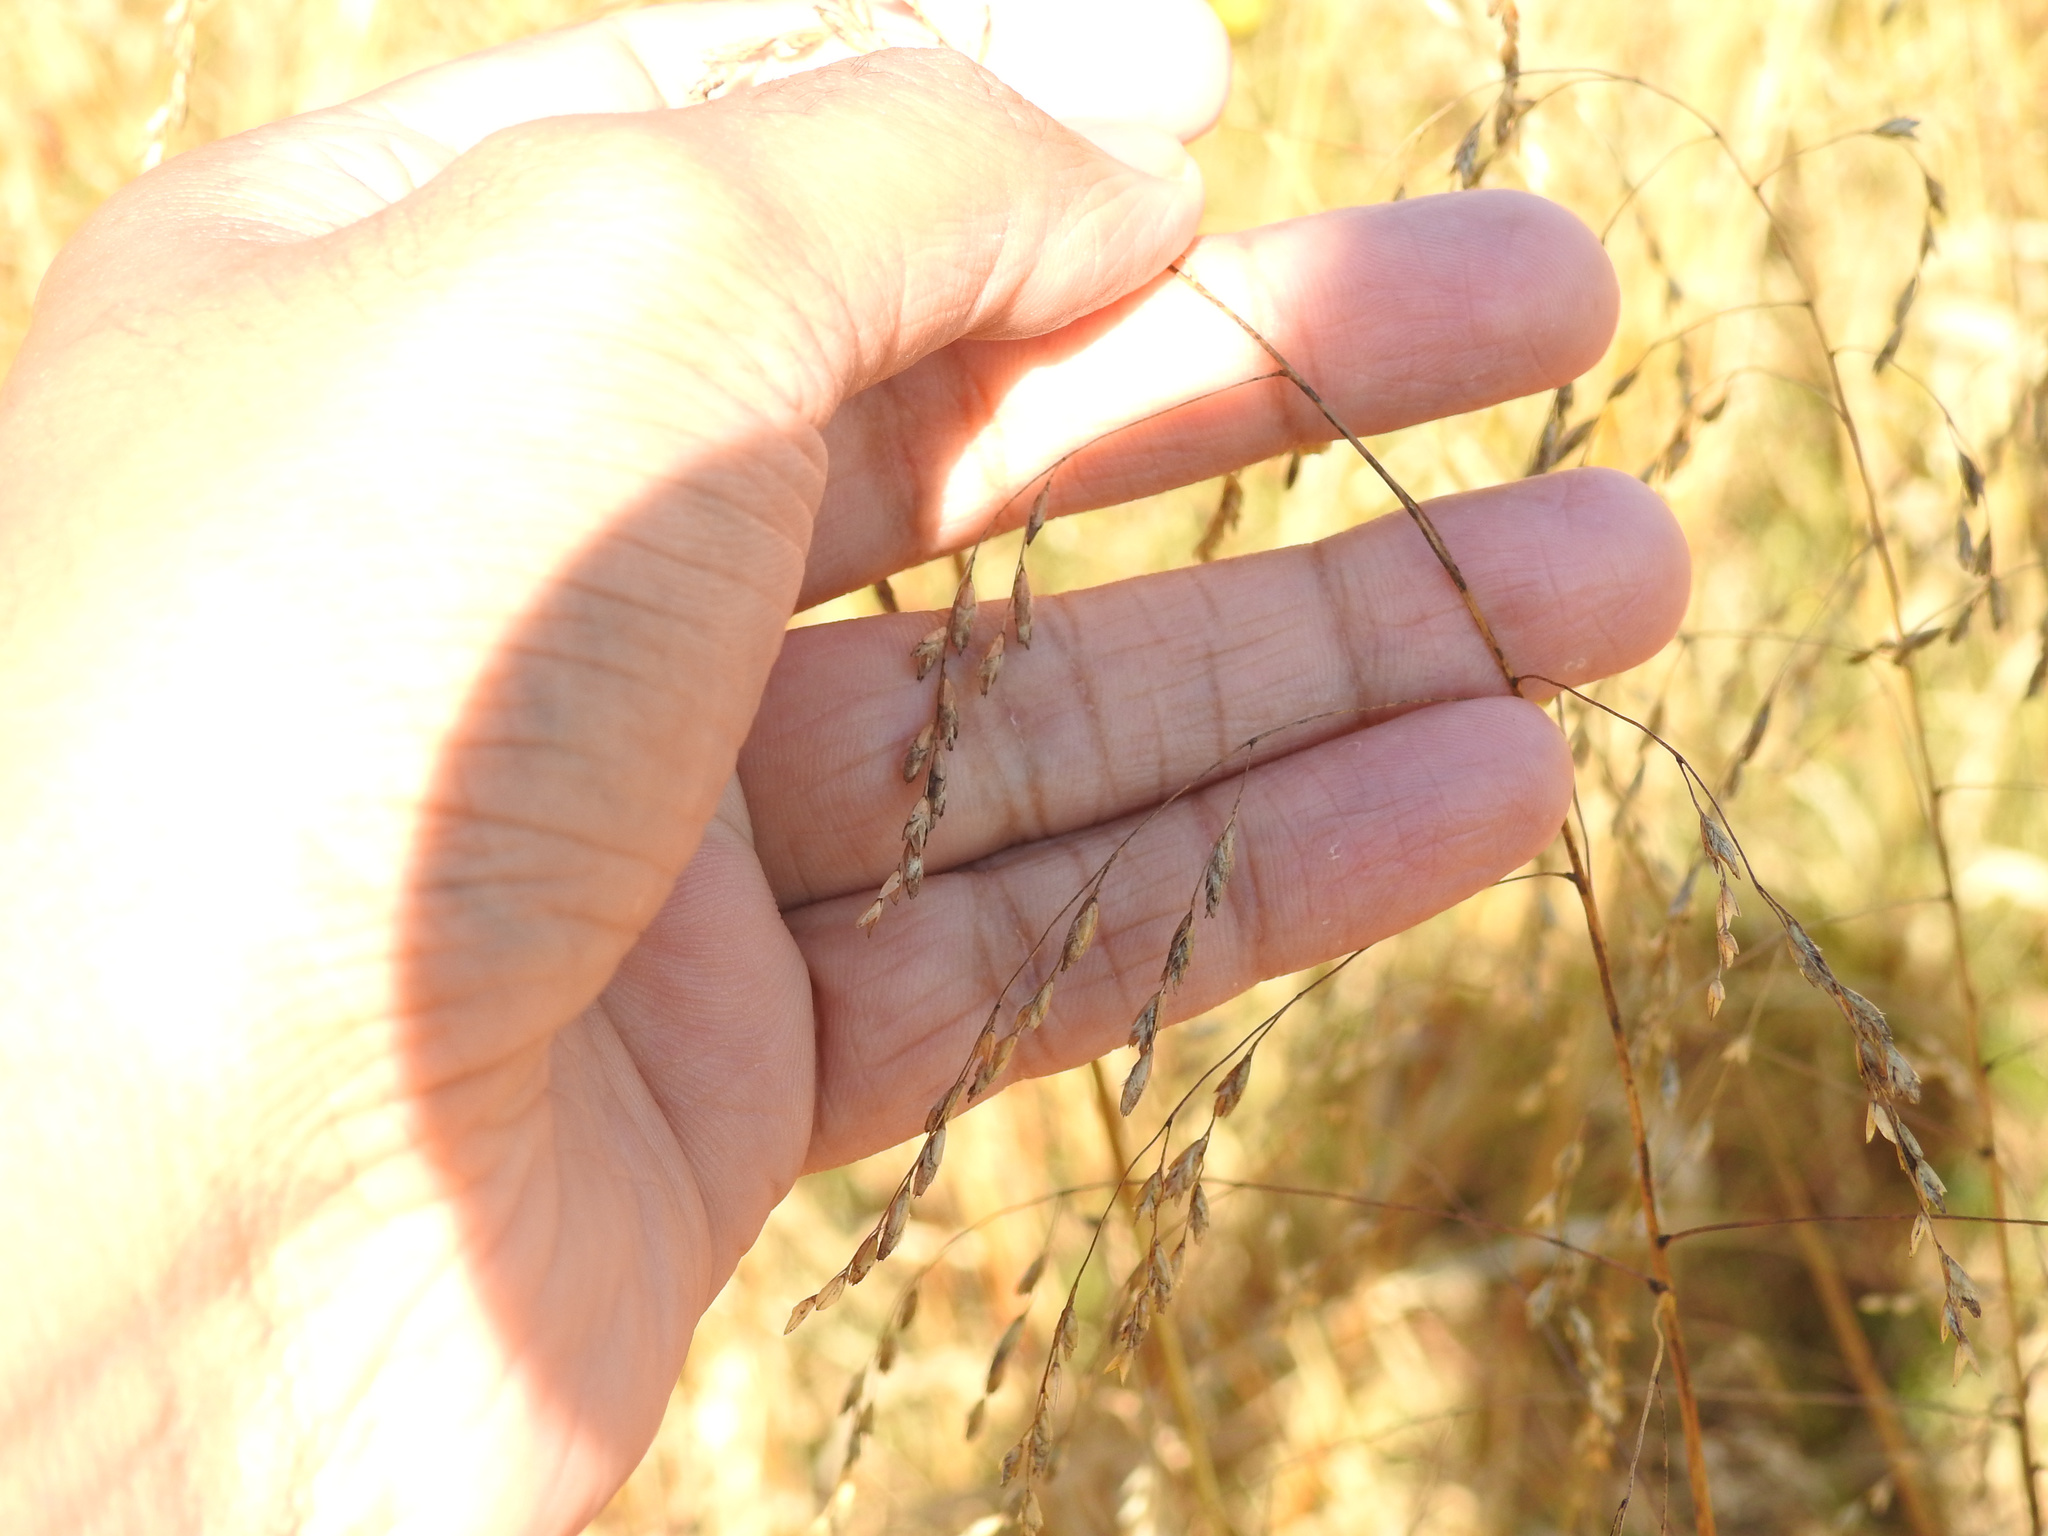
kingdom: Plantae
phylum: Tracheophyta
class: Liliopsida
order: Poales
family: Poaceae
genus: Tridens
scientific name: Tridens flavus
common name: Purpletop
